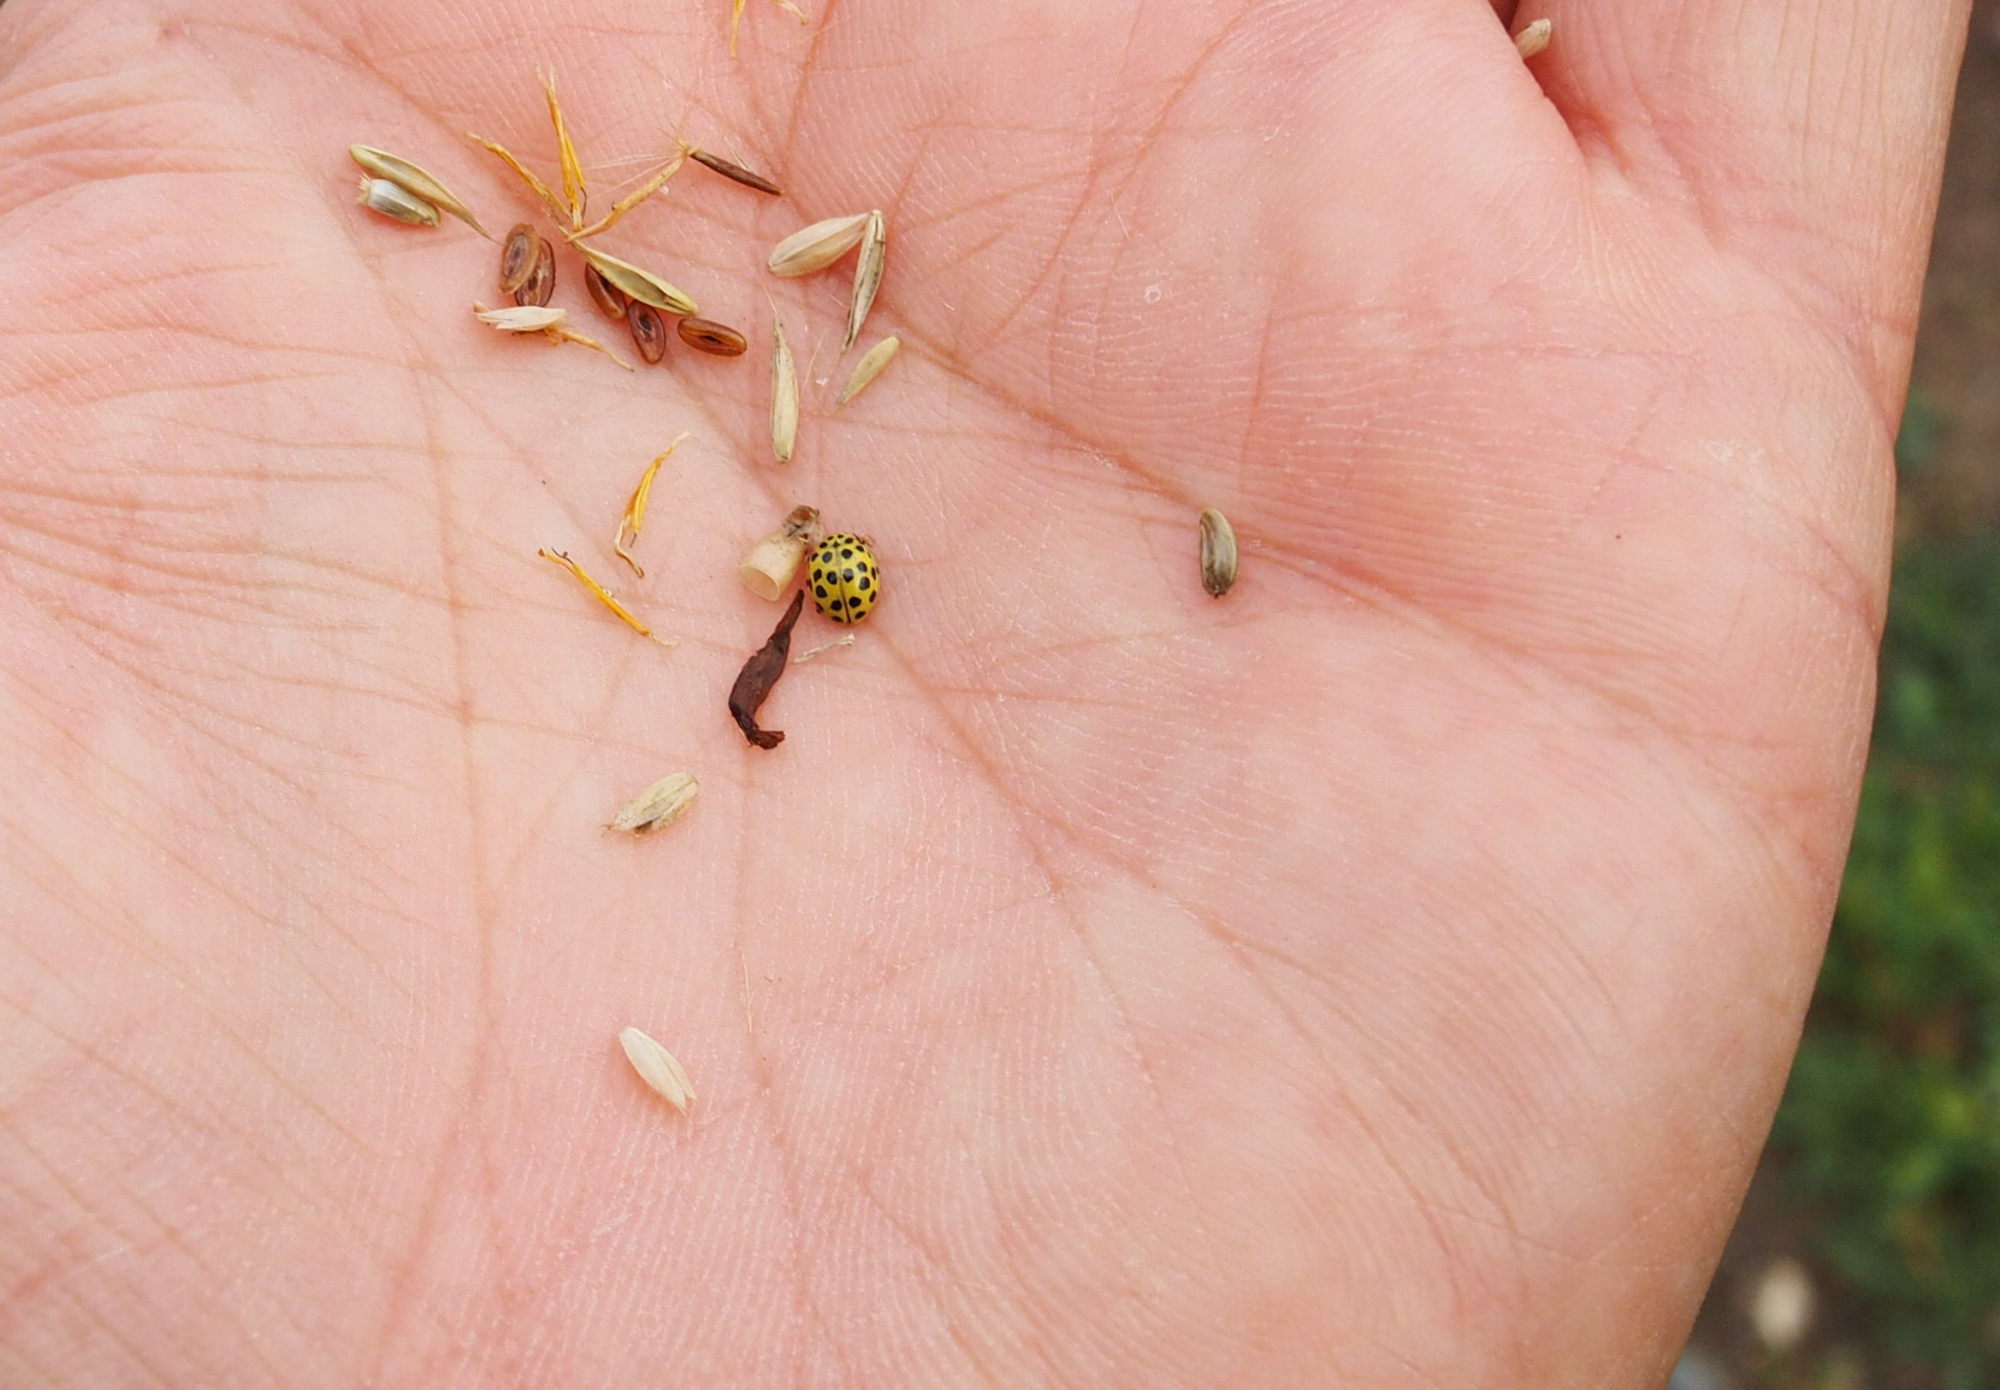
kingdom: Animalia
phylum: Arthropoda
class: Insecta
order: Coleoptera
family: Coccinellidae
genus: Psyllobora
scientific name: Psyllobora vigintiduopunctata
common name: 22-spot ladybird
